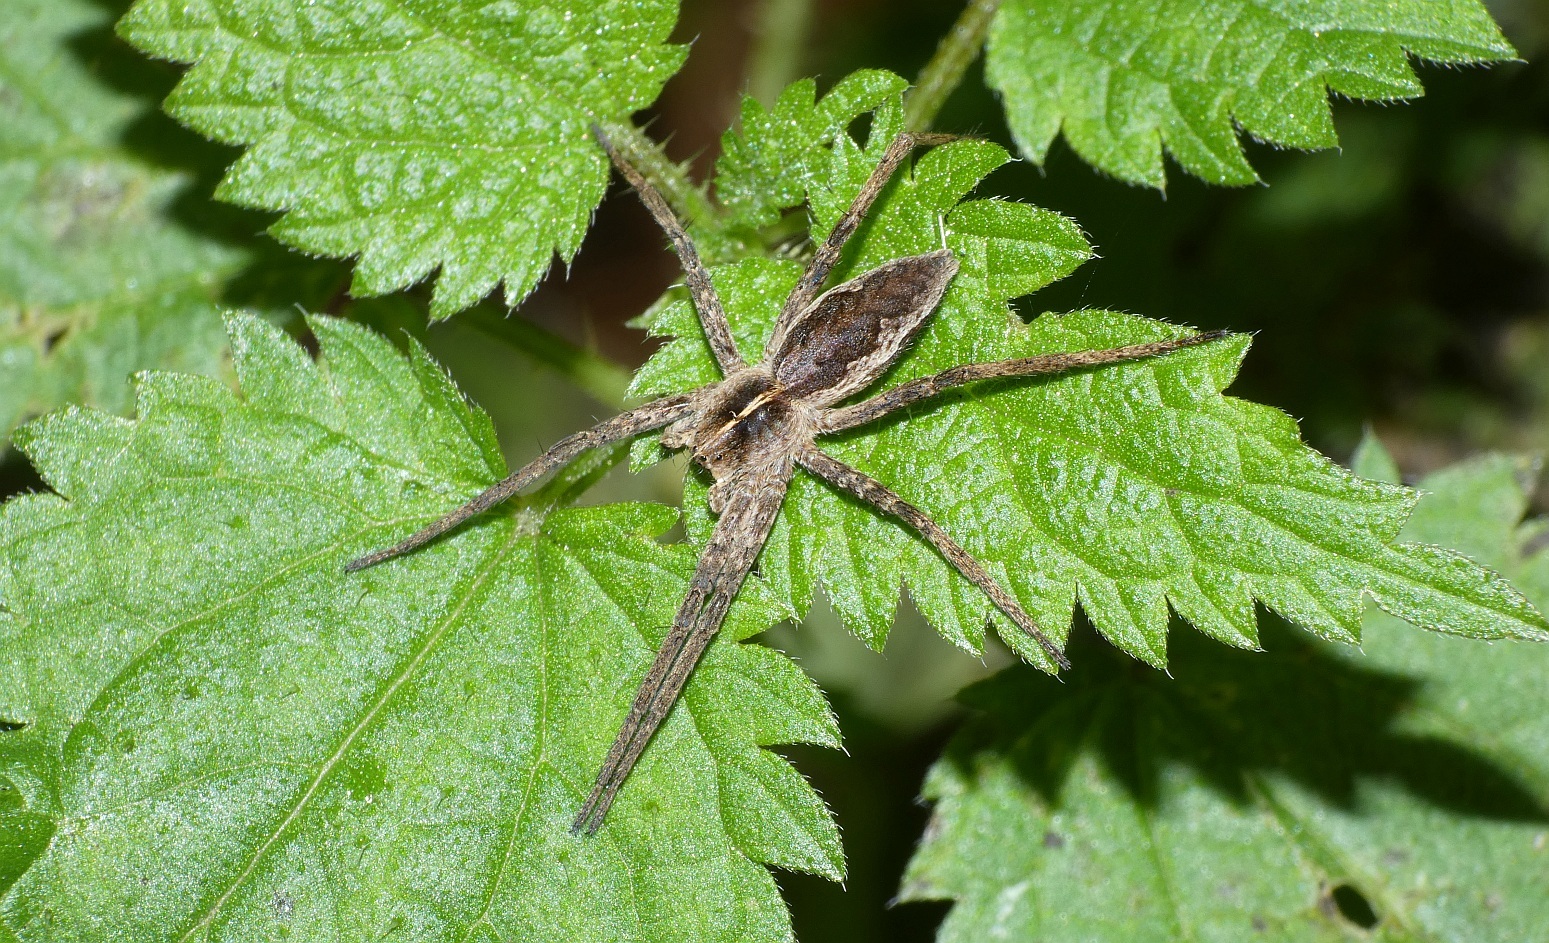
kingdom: Animalia
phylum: Arthropoda
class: Arachnida
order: Araneae
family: Pisauridae
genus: Pisaura
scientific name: Pisaura mirabilis
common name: Tent spider
